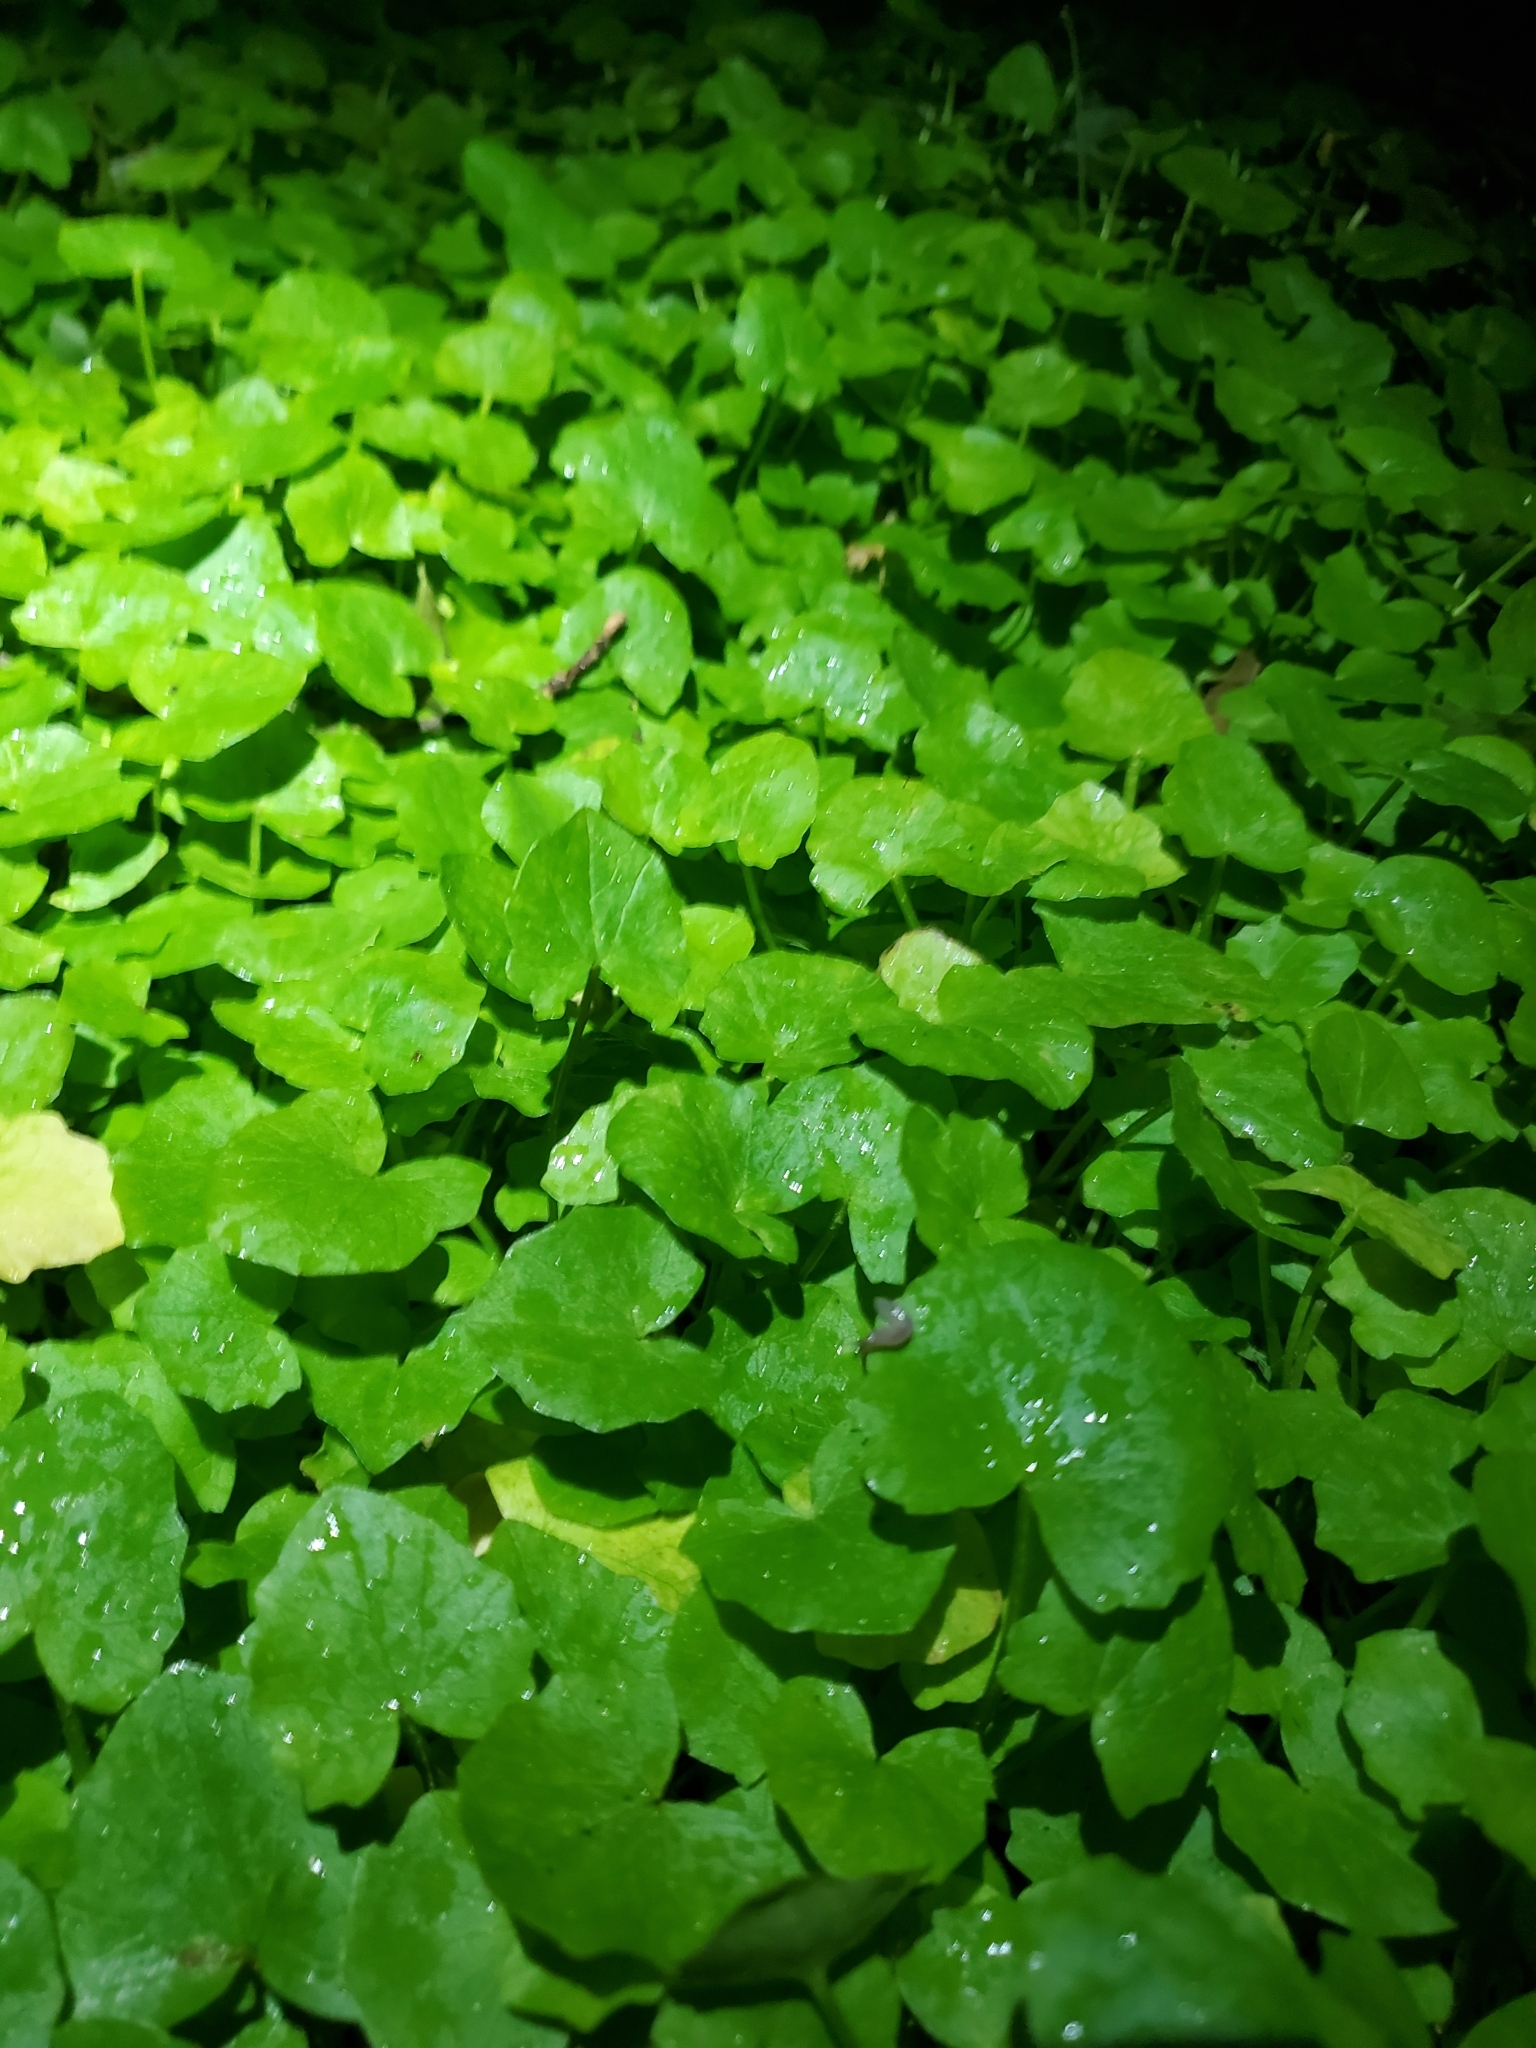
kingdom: Plantae
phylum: Tracheophyta
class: Magnoliopsida
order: Ranunculales
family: Ranunculaceae
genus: Ficaria
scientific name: Ficaria verna
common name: Lesser celandine
